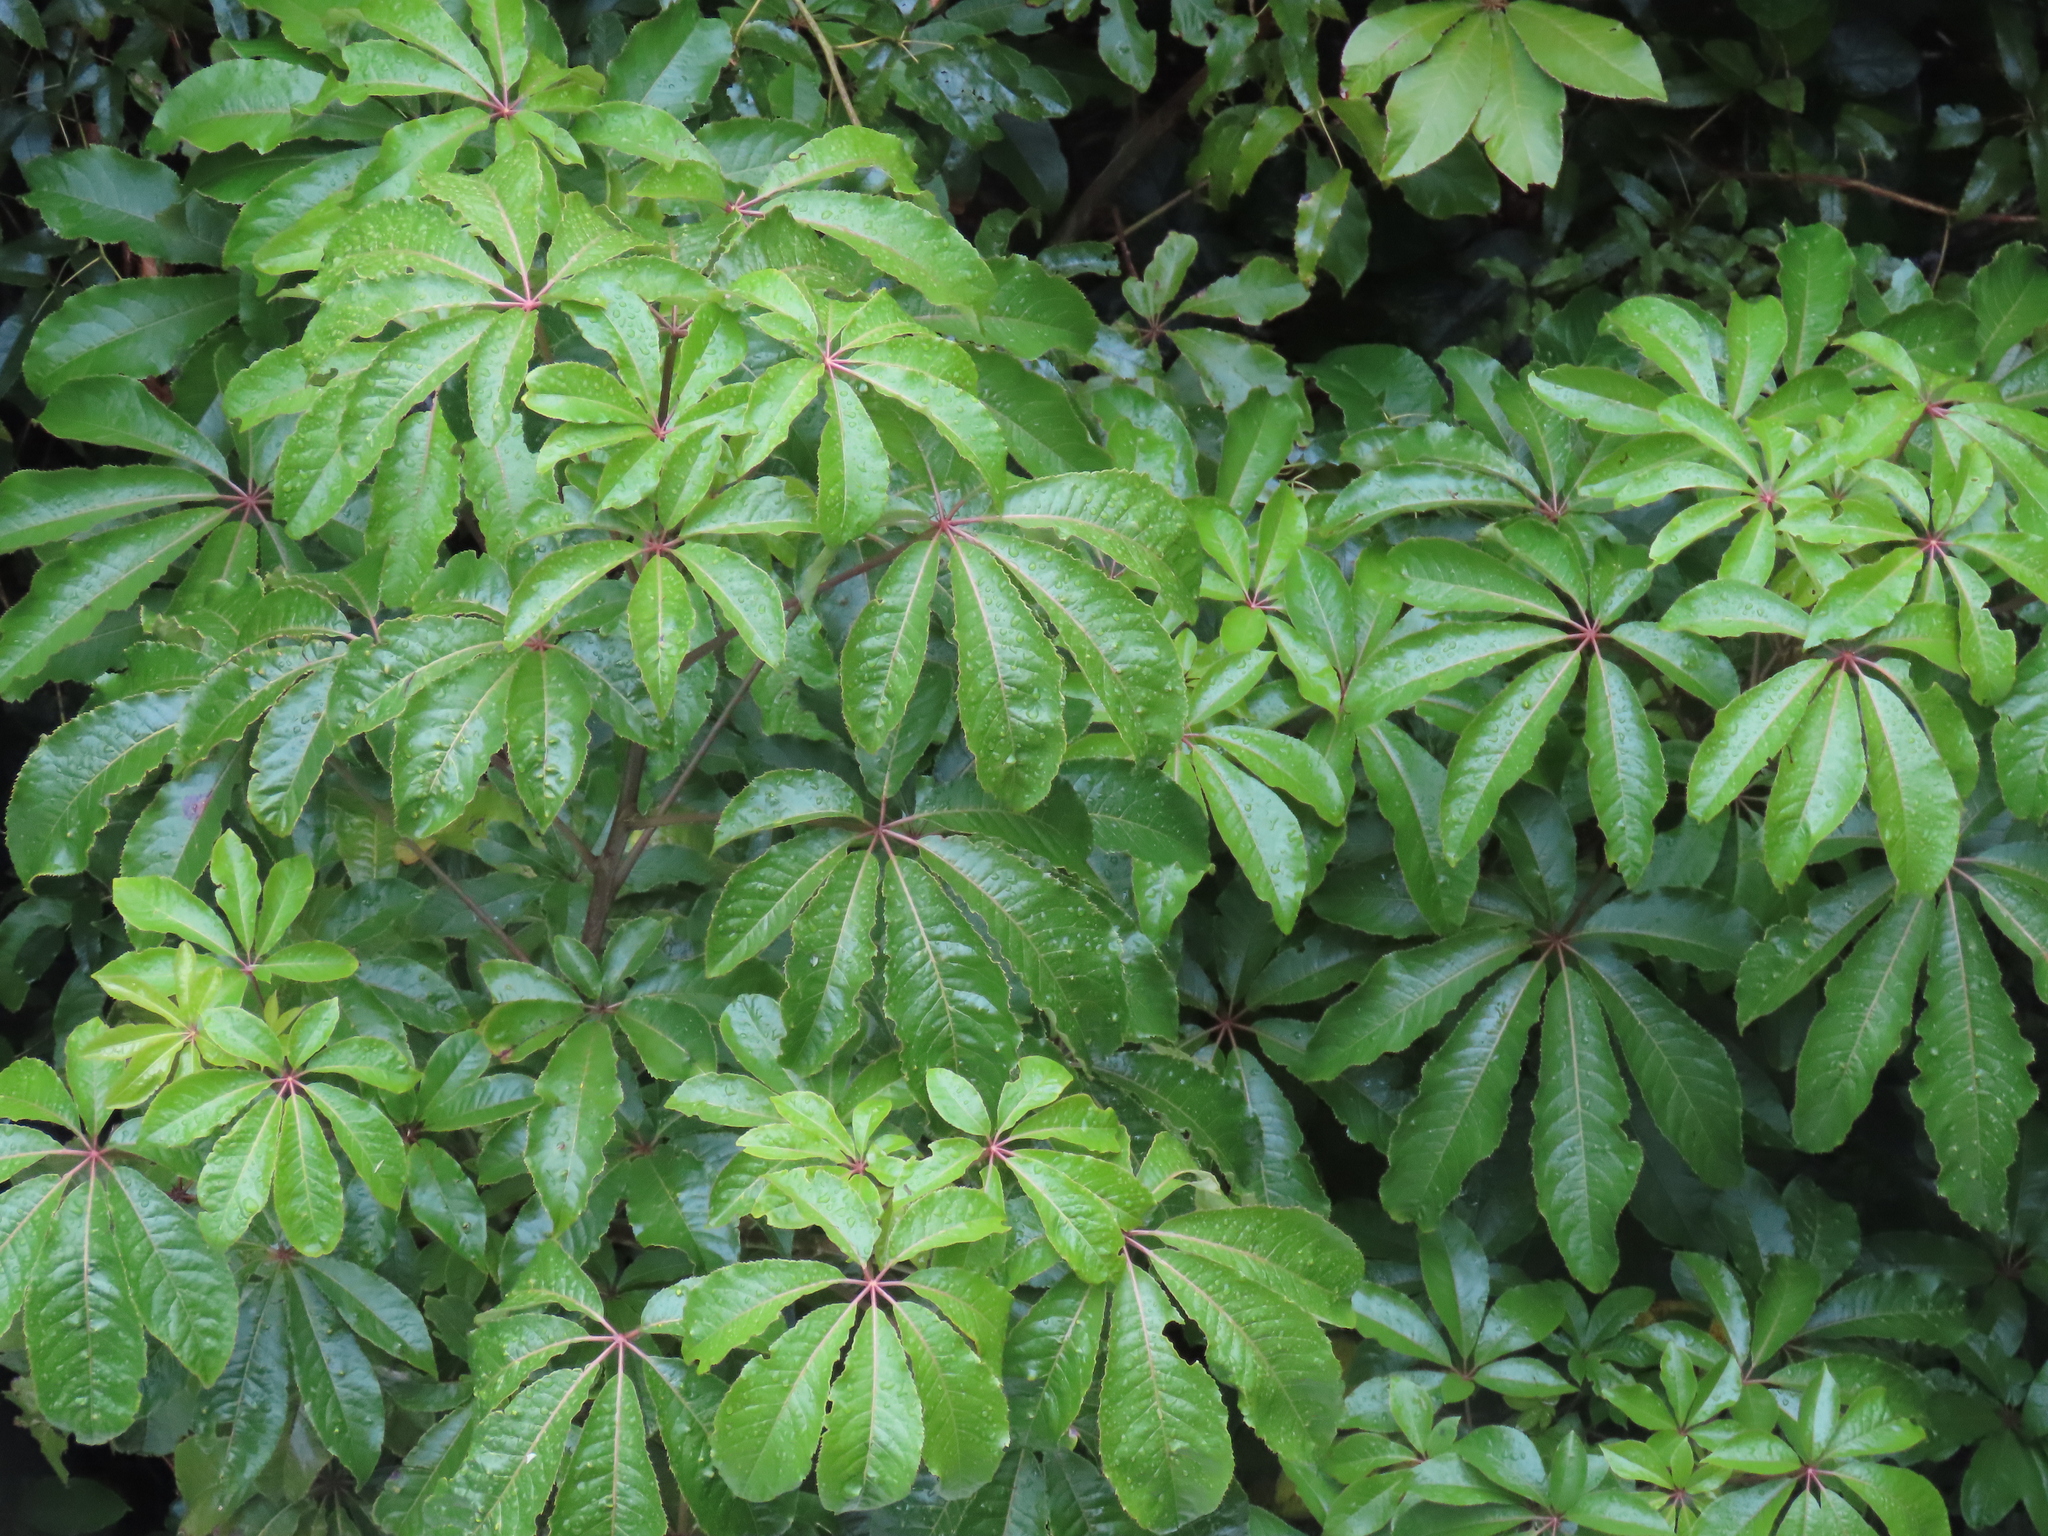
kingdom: Plantae
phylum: Tracheophyta
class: Magnoliopsida
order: Apiales
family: Araliaceae
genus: Schefflera
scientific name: Schefflera digitata
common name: Pate
